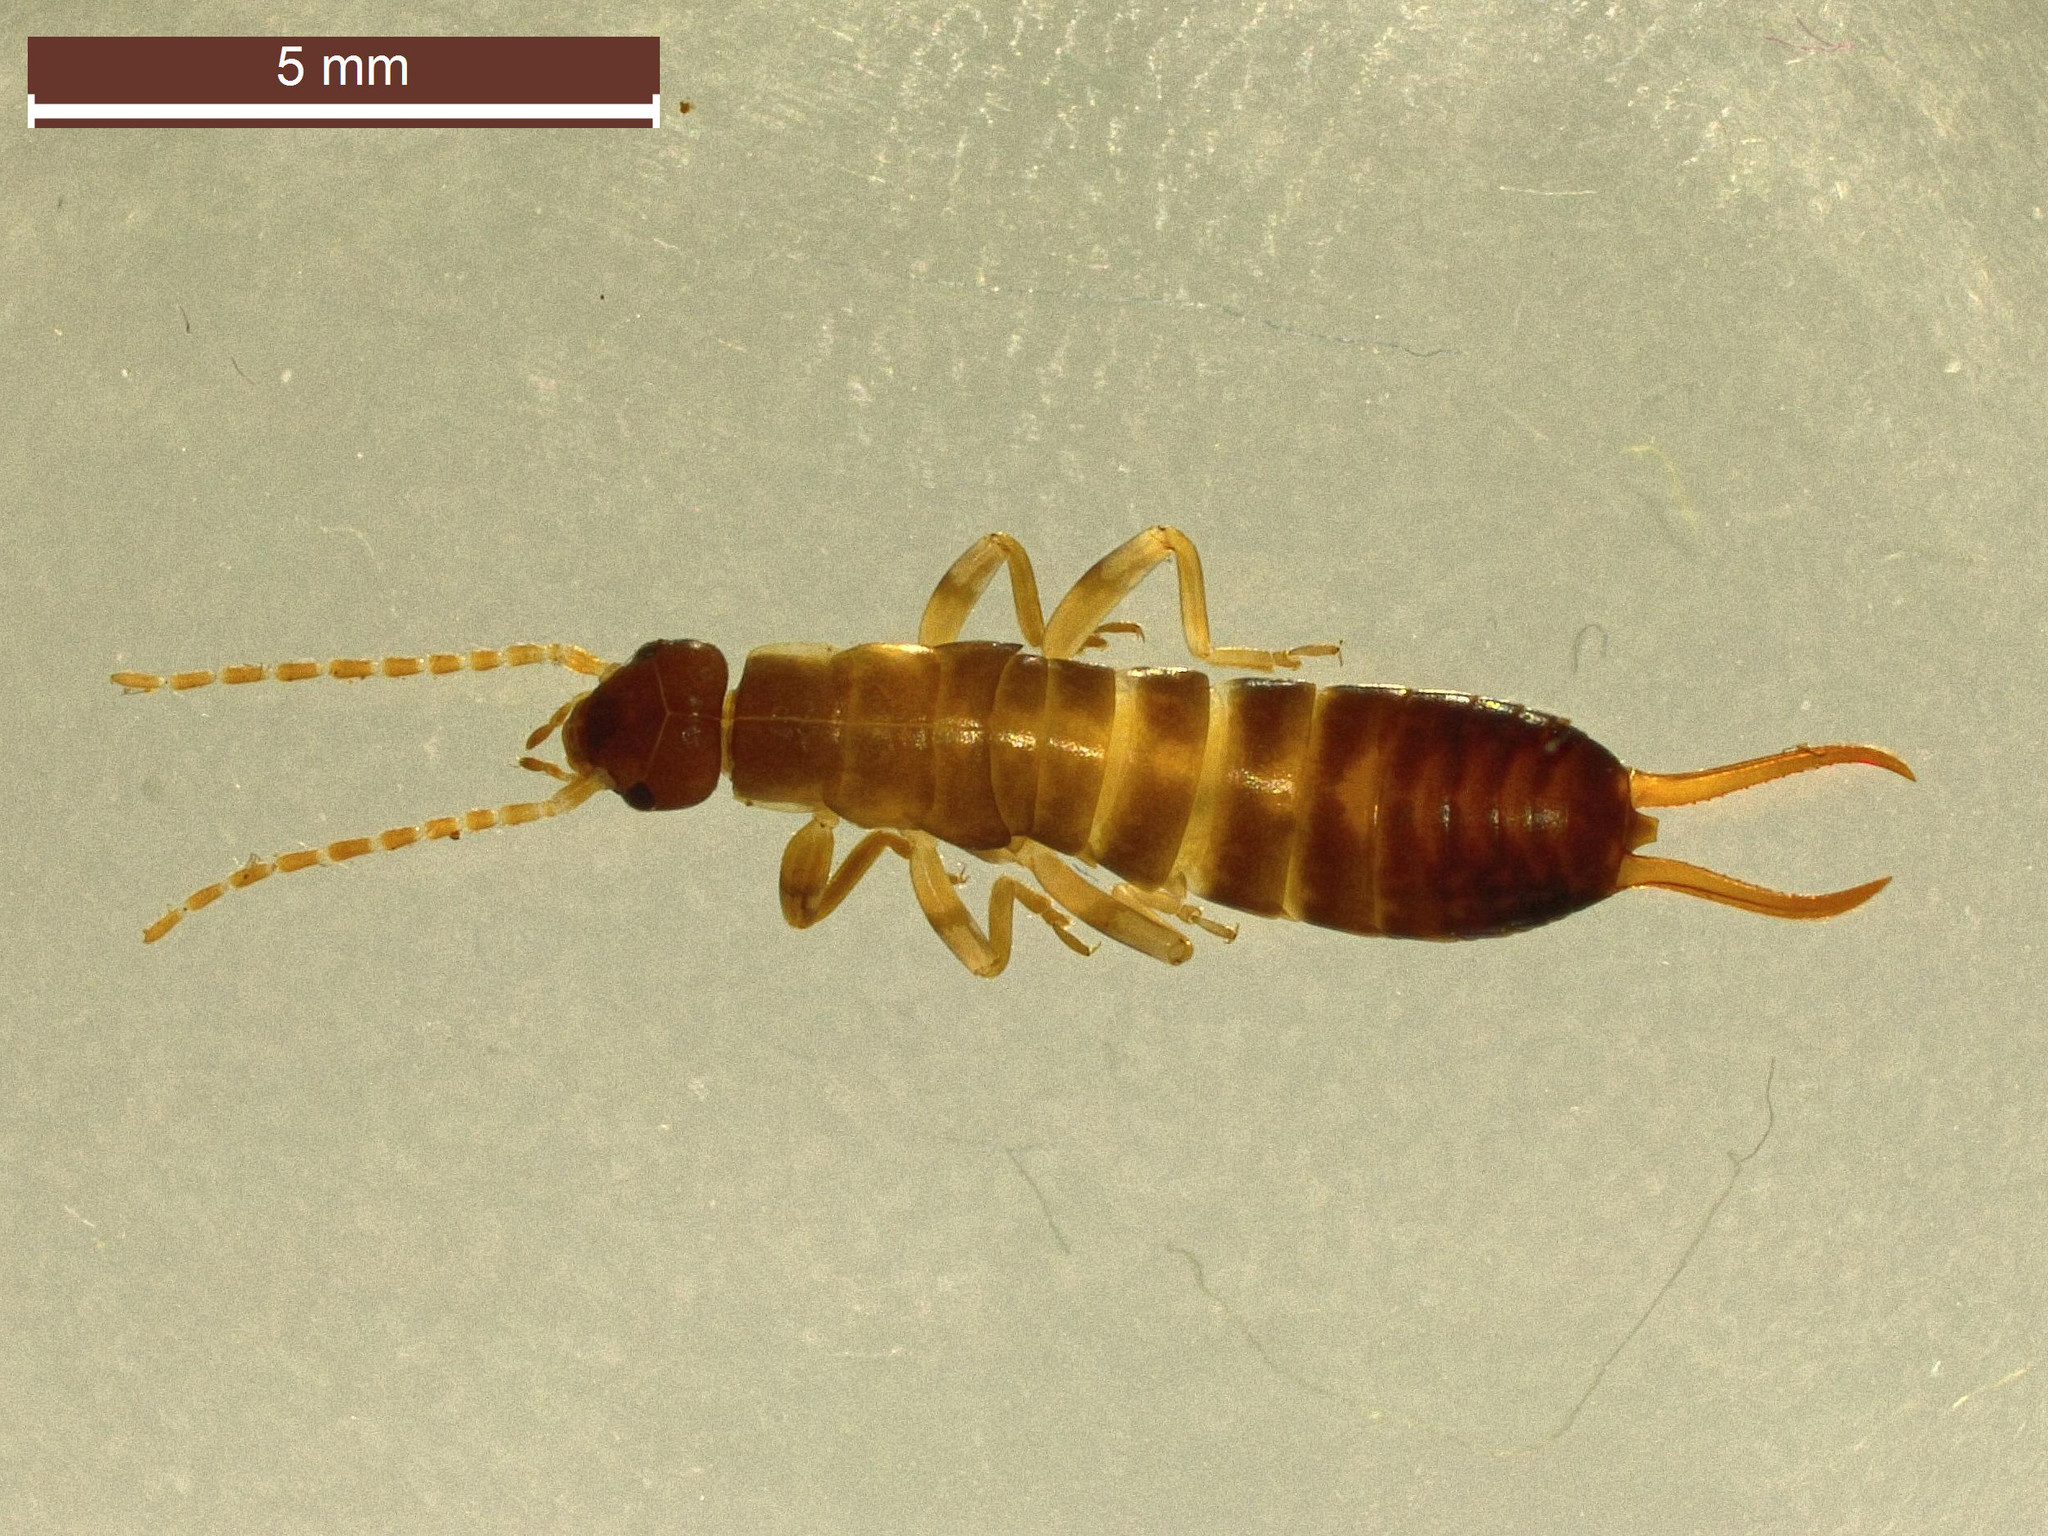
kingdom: Animalia
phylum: Arthropoda
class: Insecta
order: Dermaptera
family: Forficulidae
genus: Chelidurella
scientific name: Chelidurella acanthopygia
